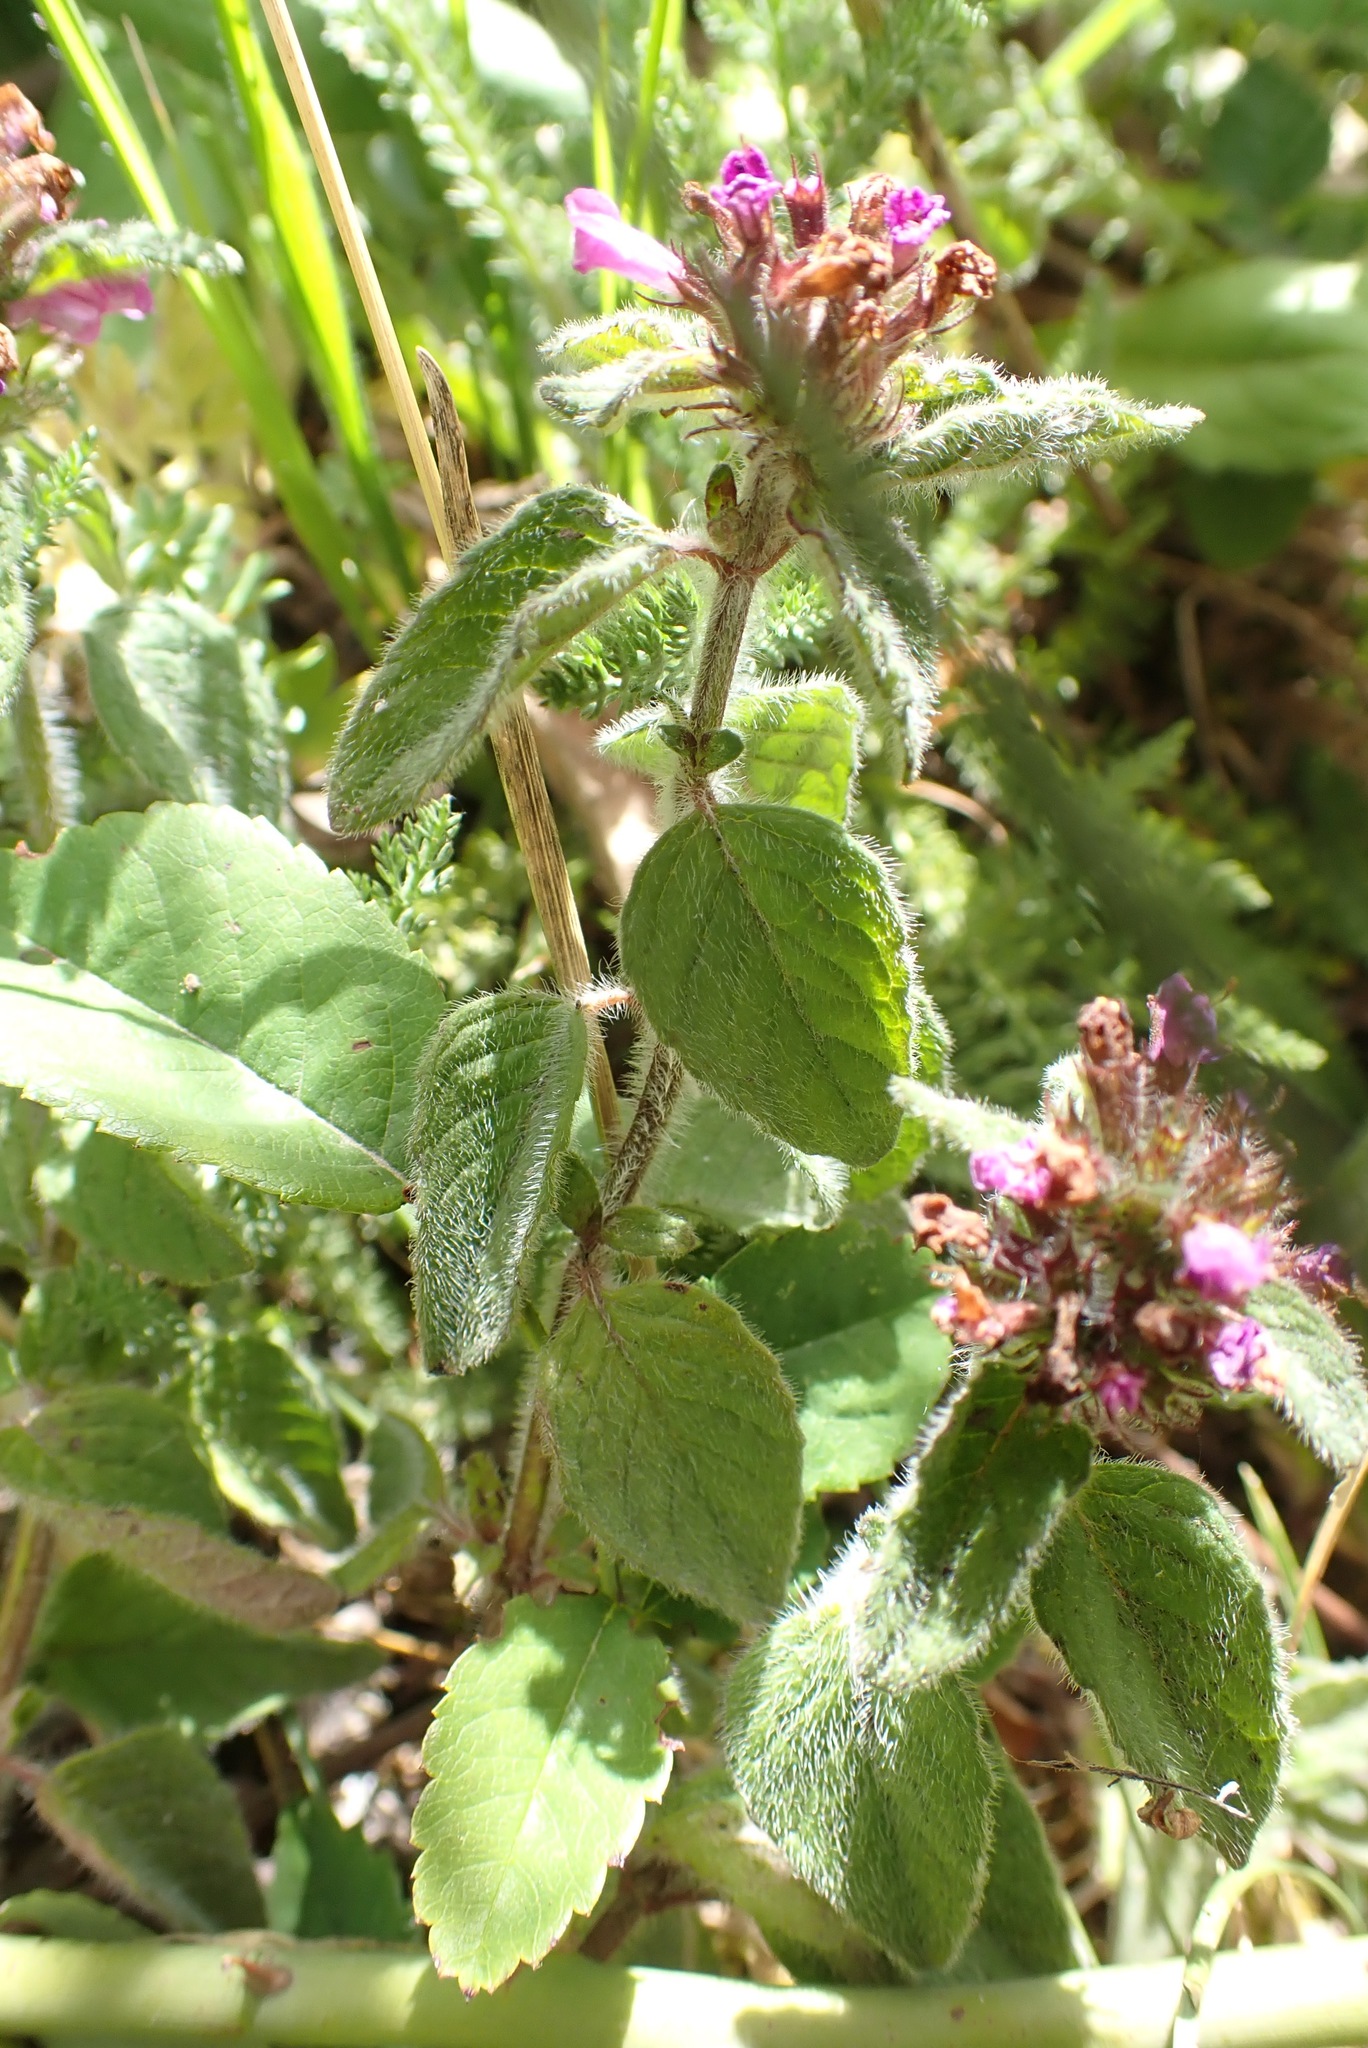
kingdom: Plantae
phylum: Tracheophyta
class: Magnoliopsida
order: Lamiales
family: Lamiaceae
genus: Clinopodium
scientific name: Clinopodium vulgare
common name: Wild basil
